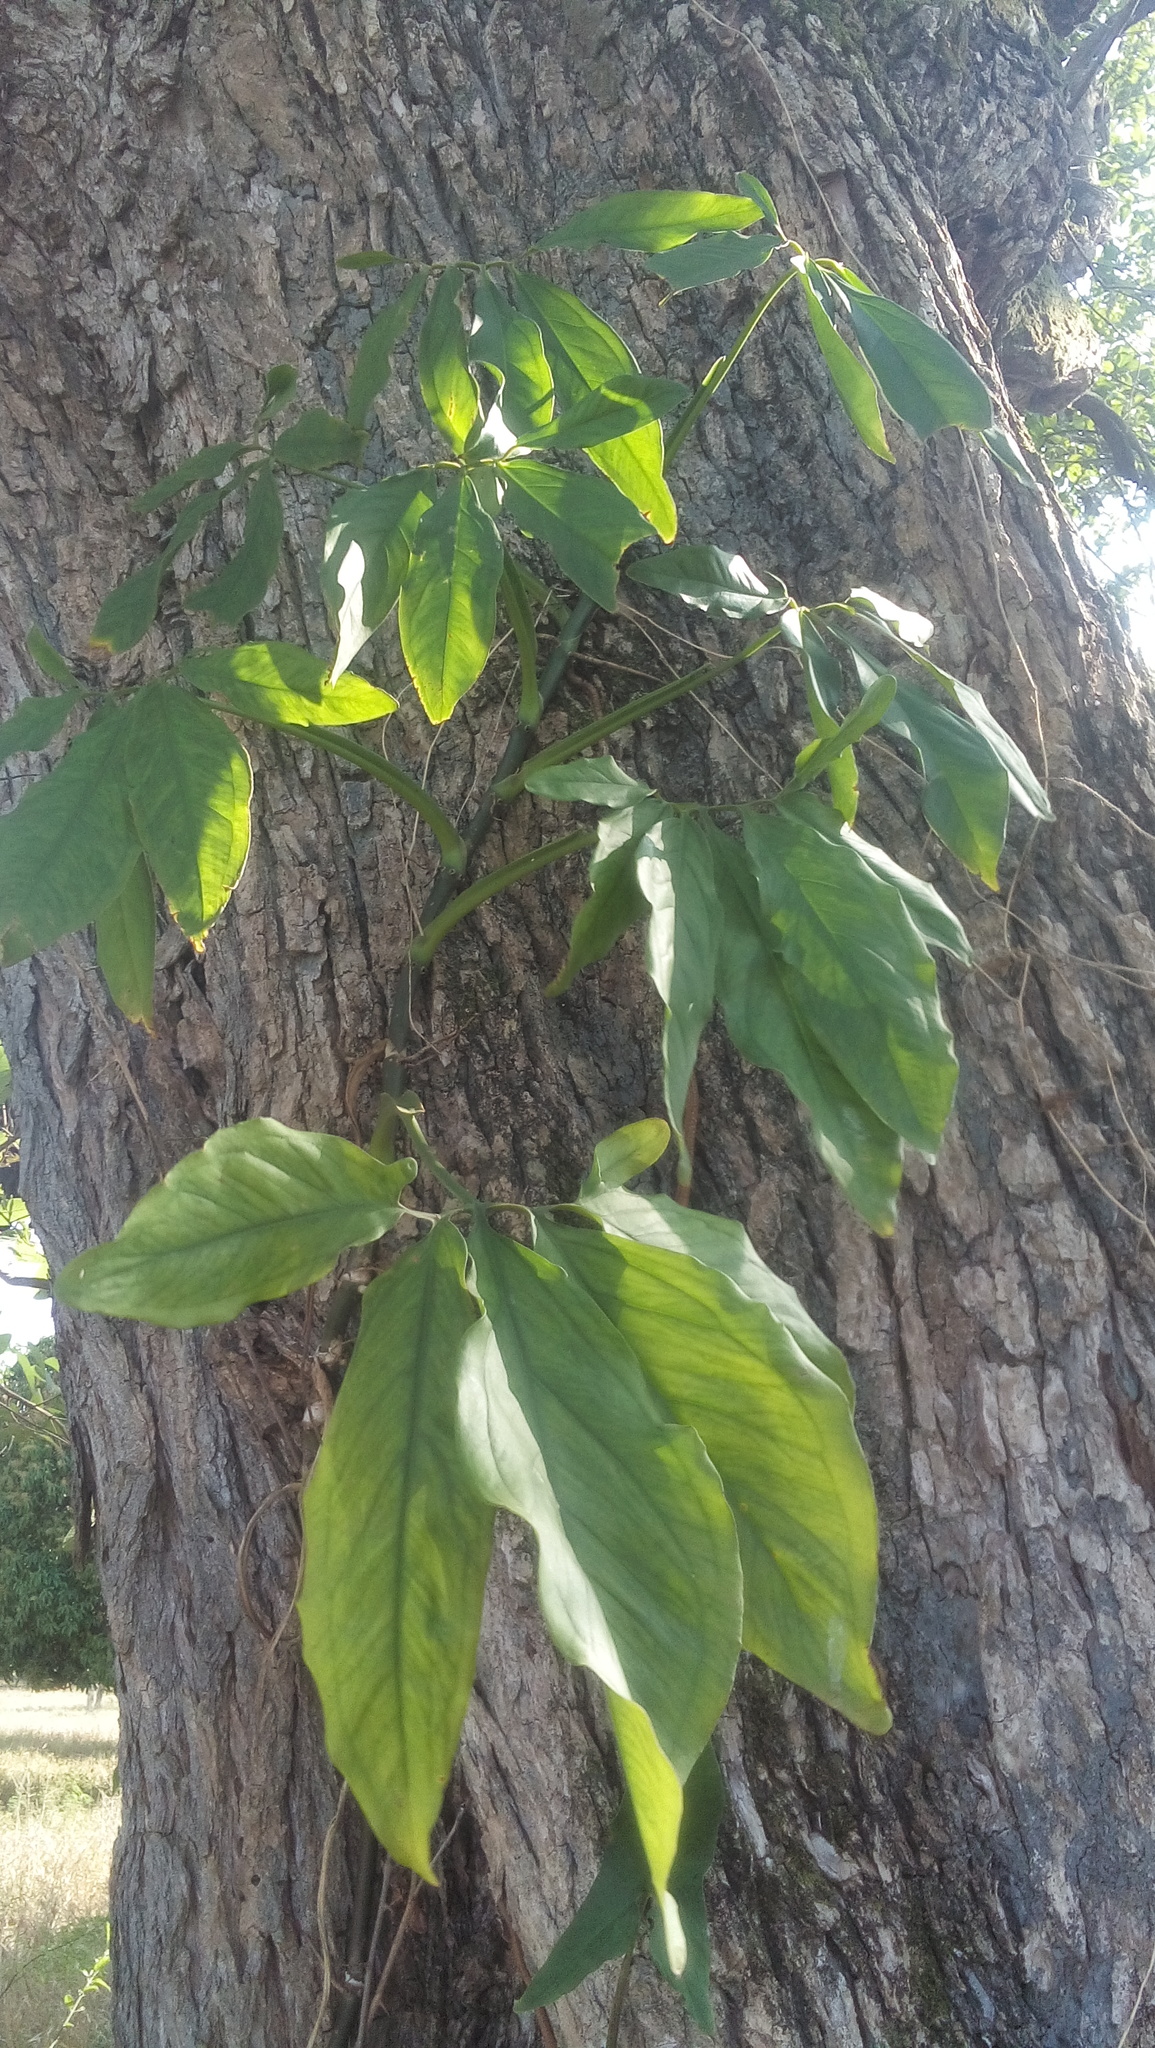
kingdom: Plantae
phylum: Tracheophyta
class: Liliopsida
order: Alismatales
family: Araceae
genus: Syngonium
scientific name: Syngonium podophyllum
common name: American evergreen
